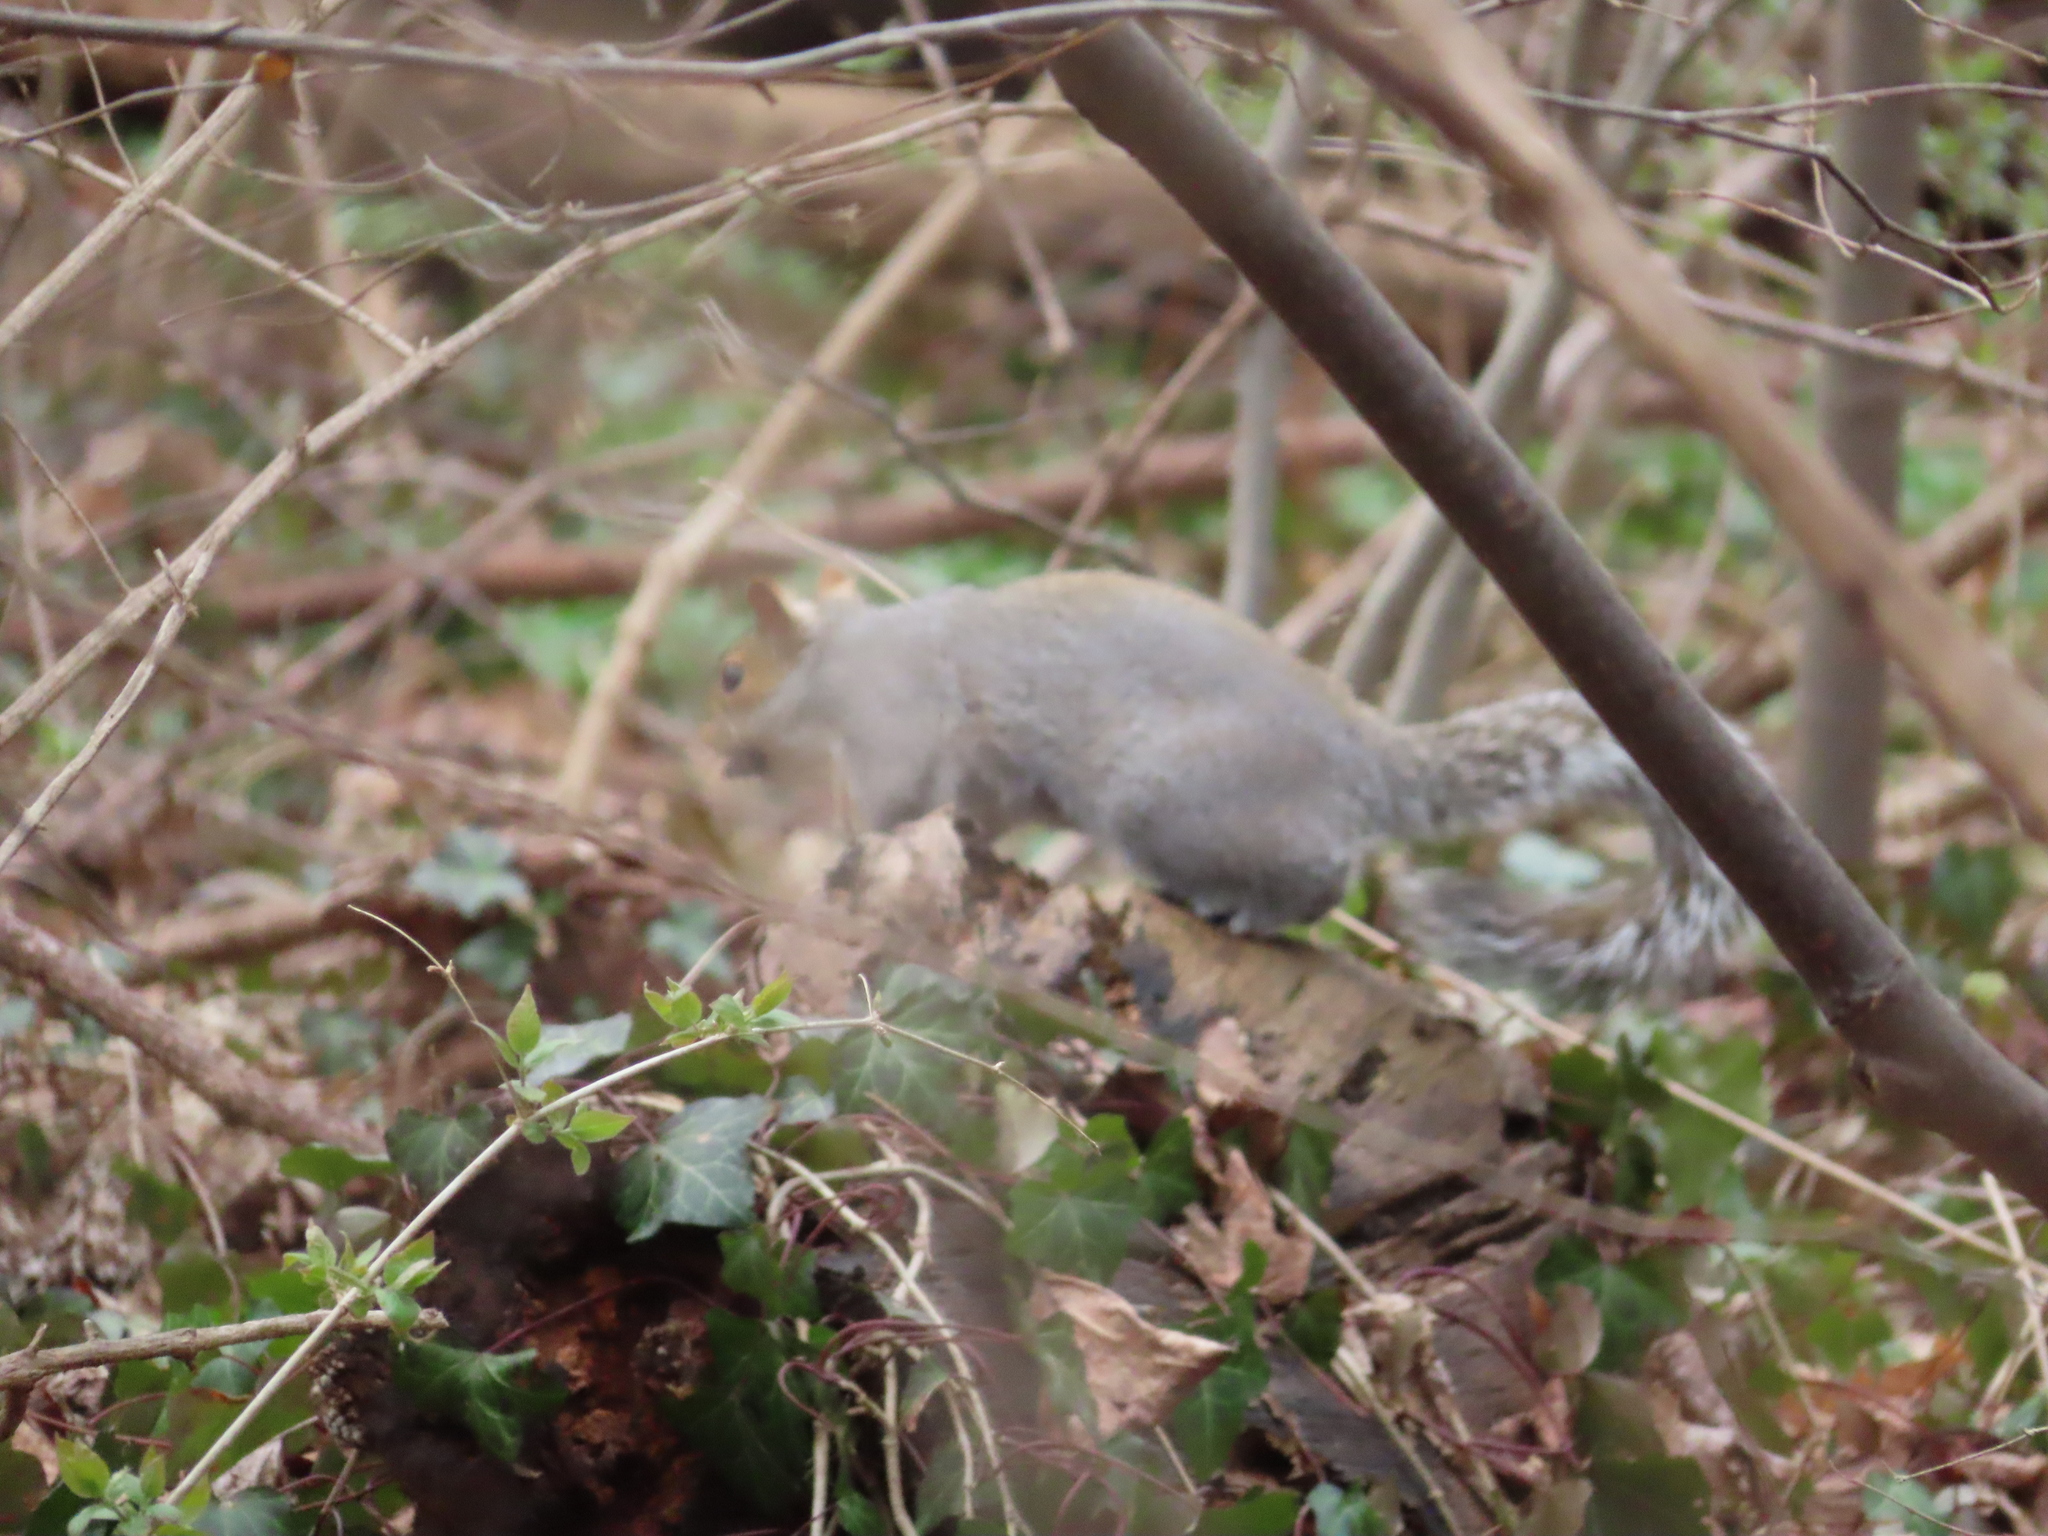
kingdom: Animalia
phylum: Chordata
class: Mammalia
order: Rodentia
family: Sciuridae
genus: Sciurus
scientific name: Sciurus carolinensis
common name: Eastern gray squirrel
